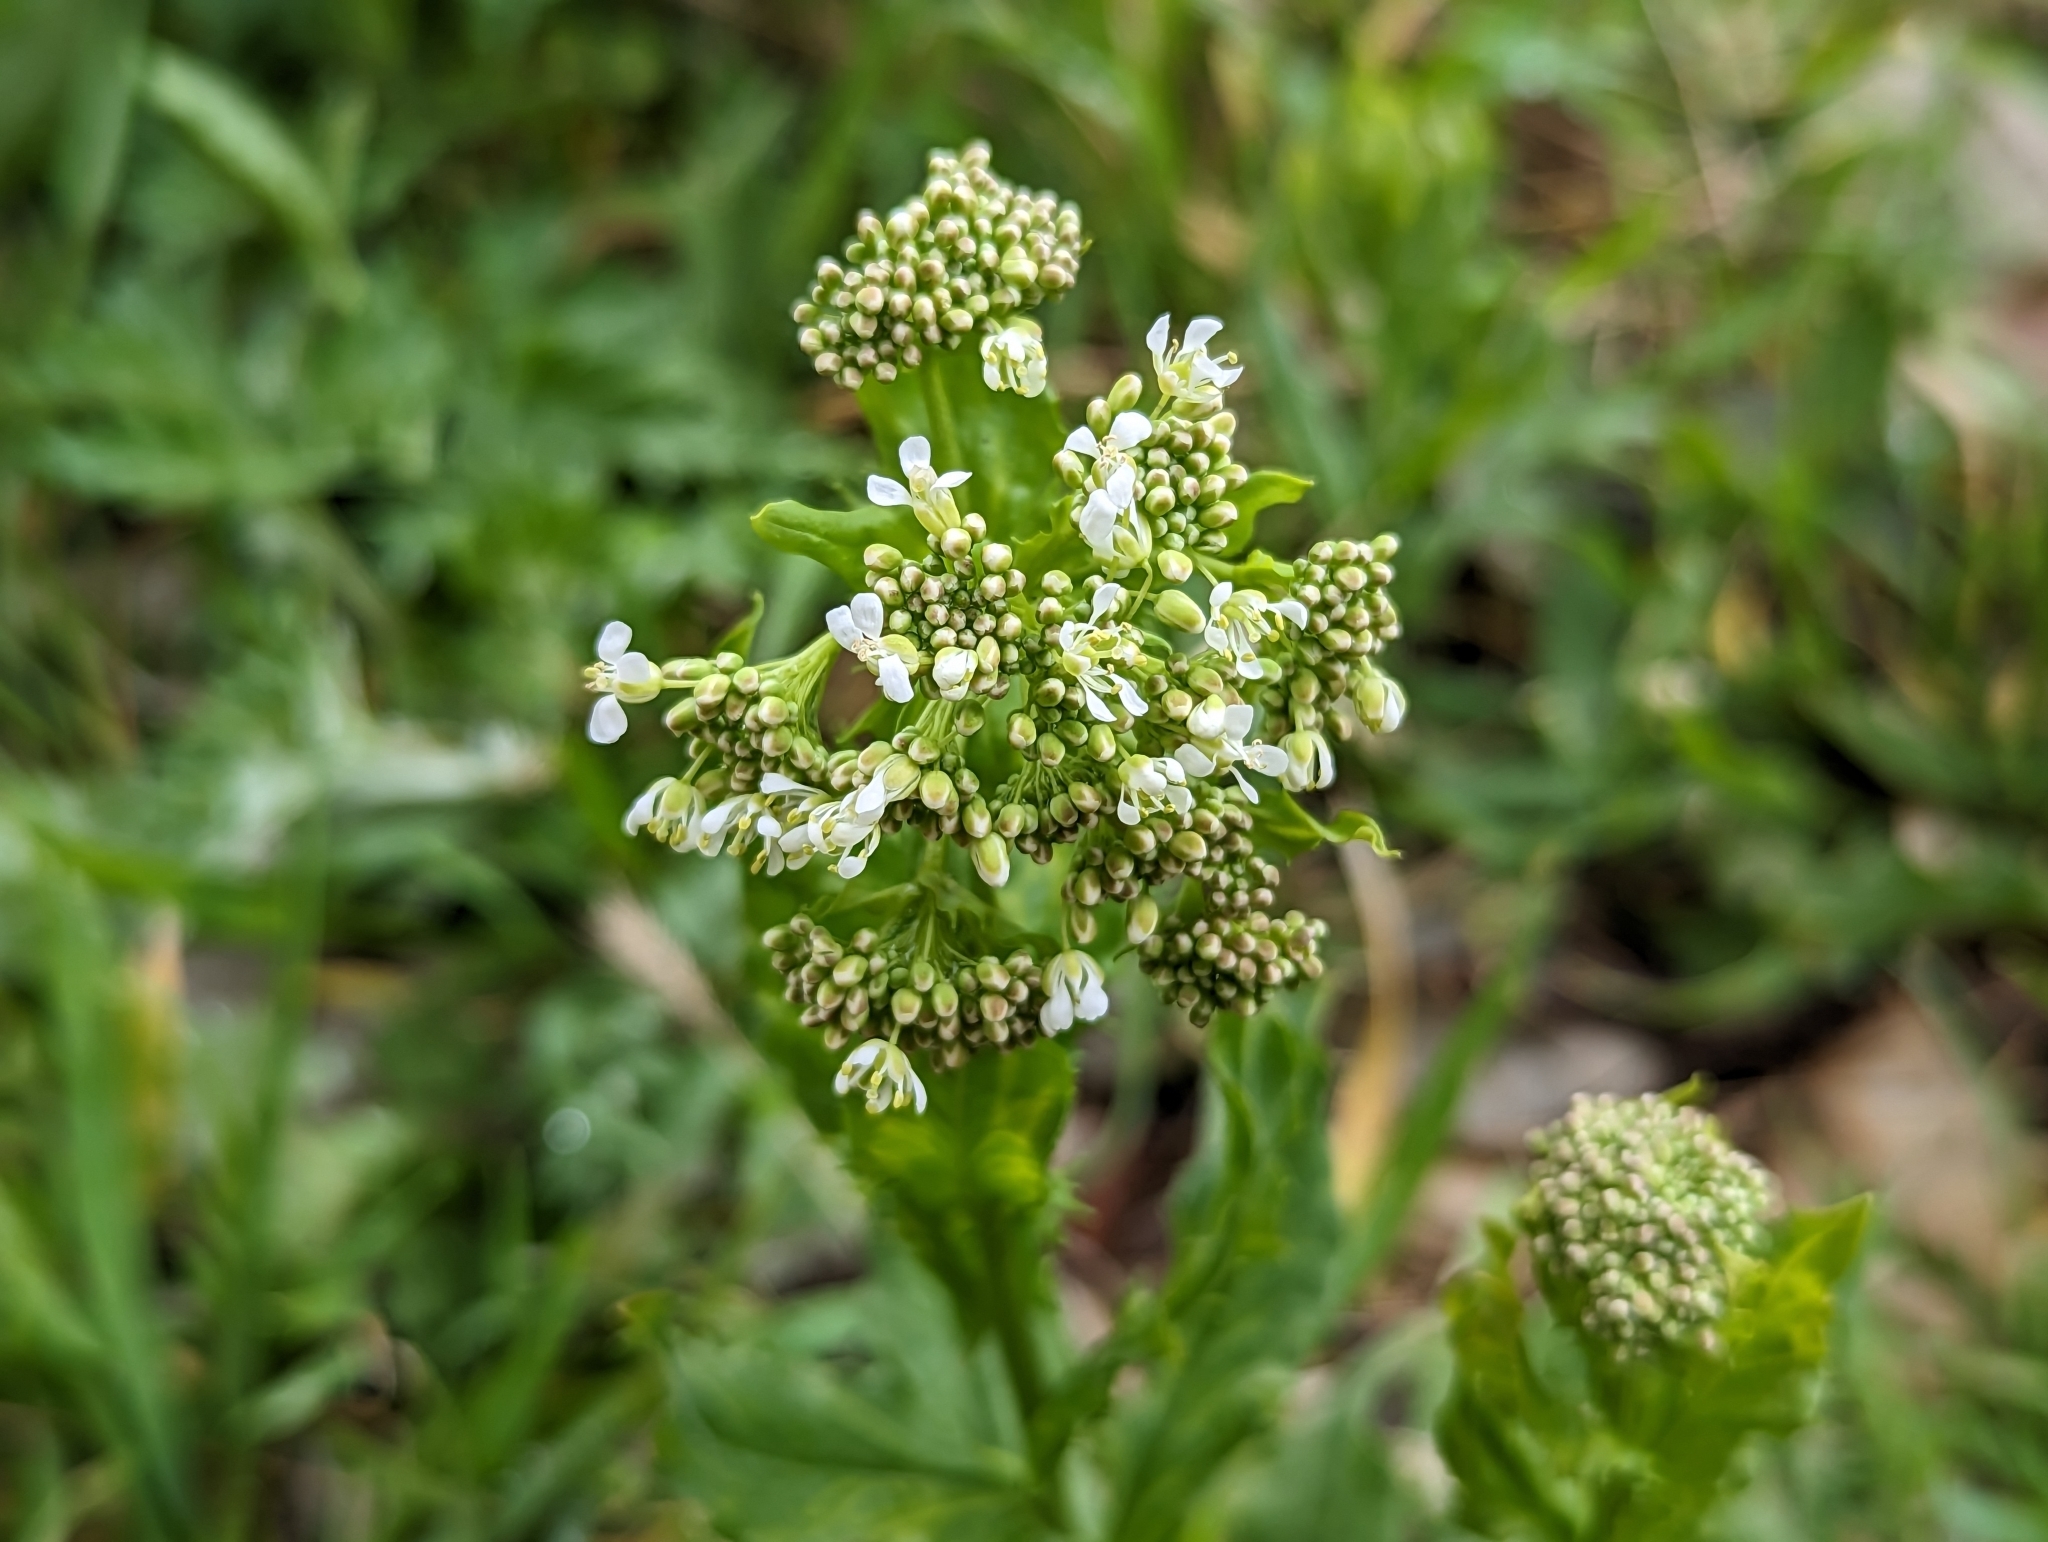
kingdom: Plantae
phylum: Tracheophyta
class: Magnoliopsida
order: Brassicales
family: Brassicaceae
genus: Lepidium
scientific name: Lepidium draba
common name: Hoary cress
